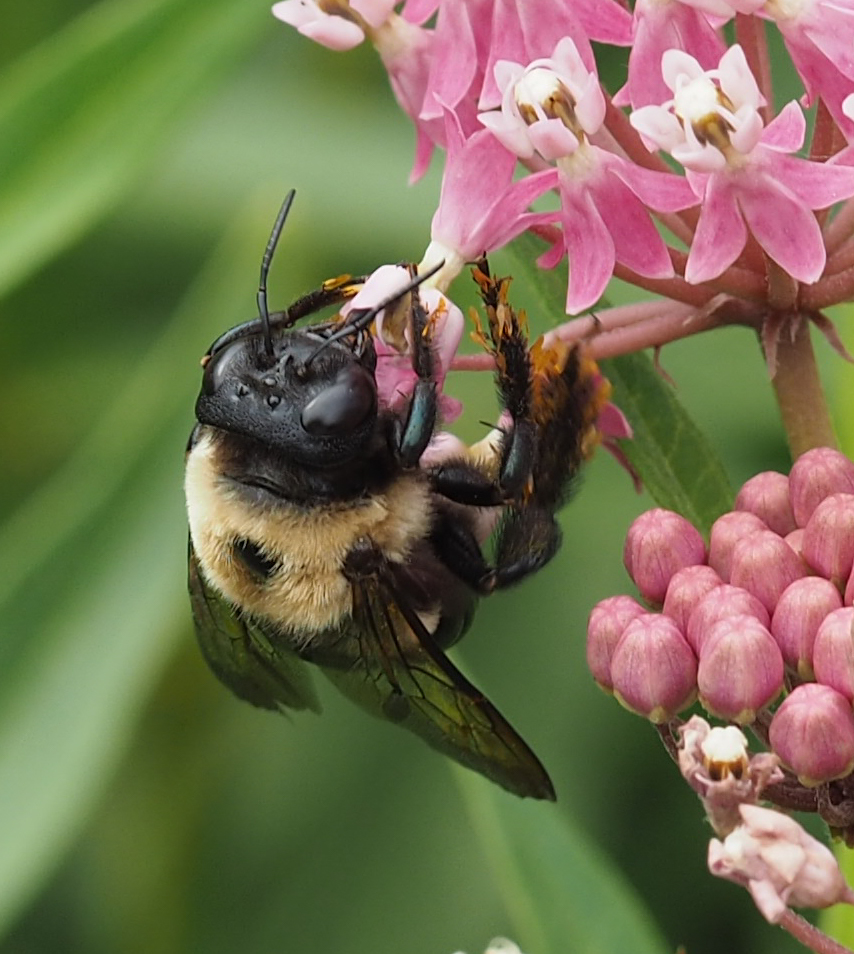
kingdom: Animalia
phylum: Arthropoda
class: Insecta
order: Hymenoptera
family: Apidae
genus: Xylocopa
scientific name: Xylocopa virginica
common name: Carpenter bee
